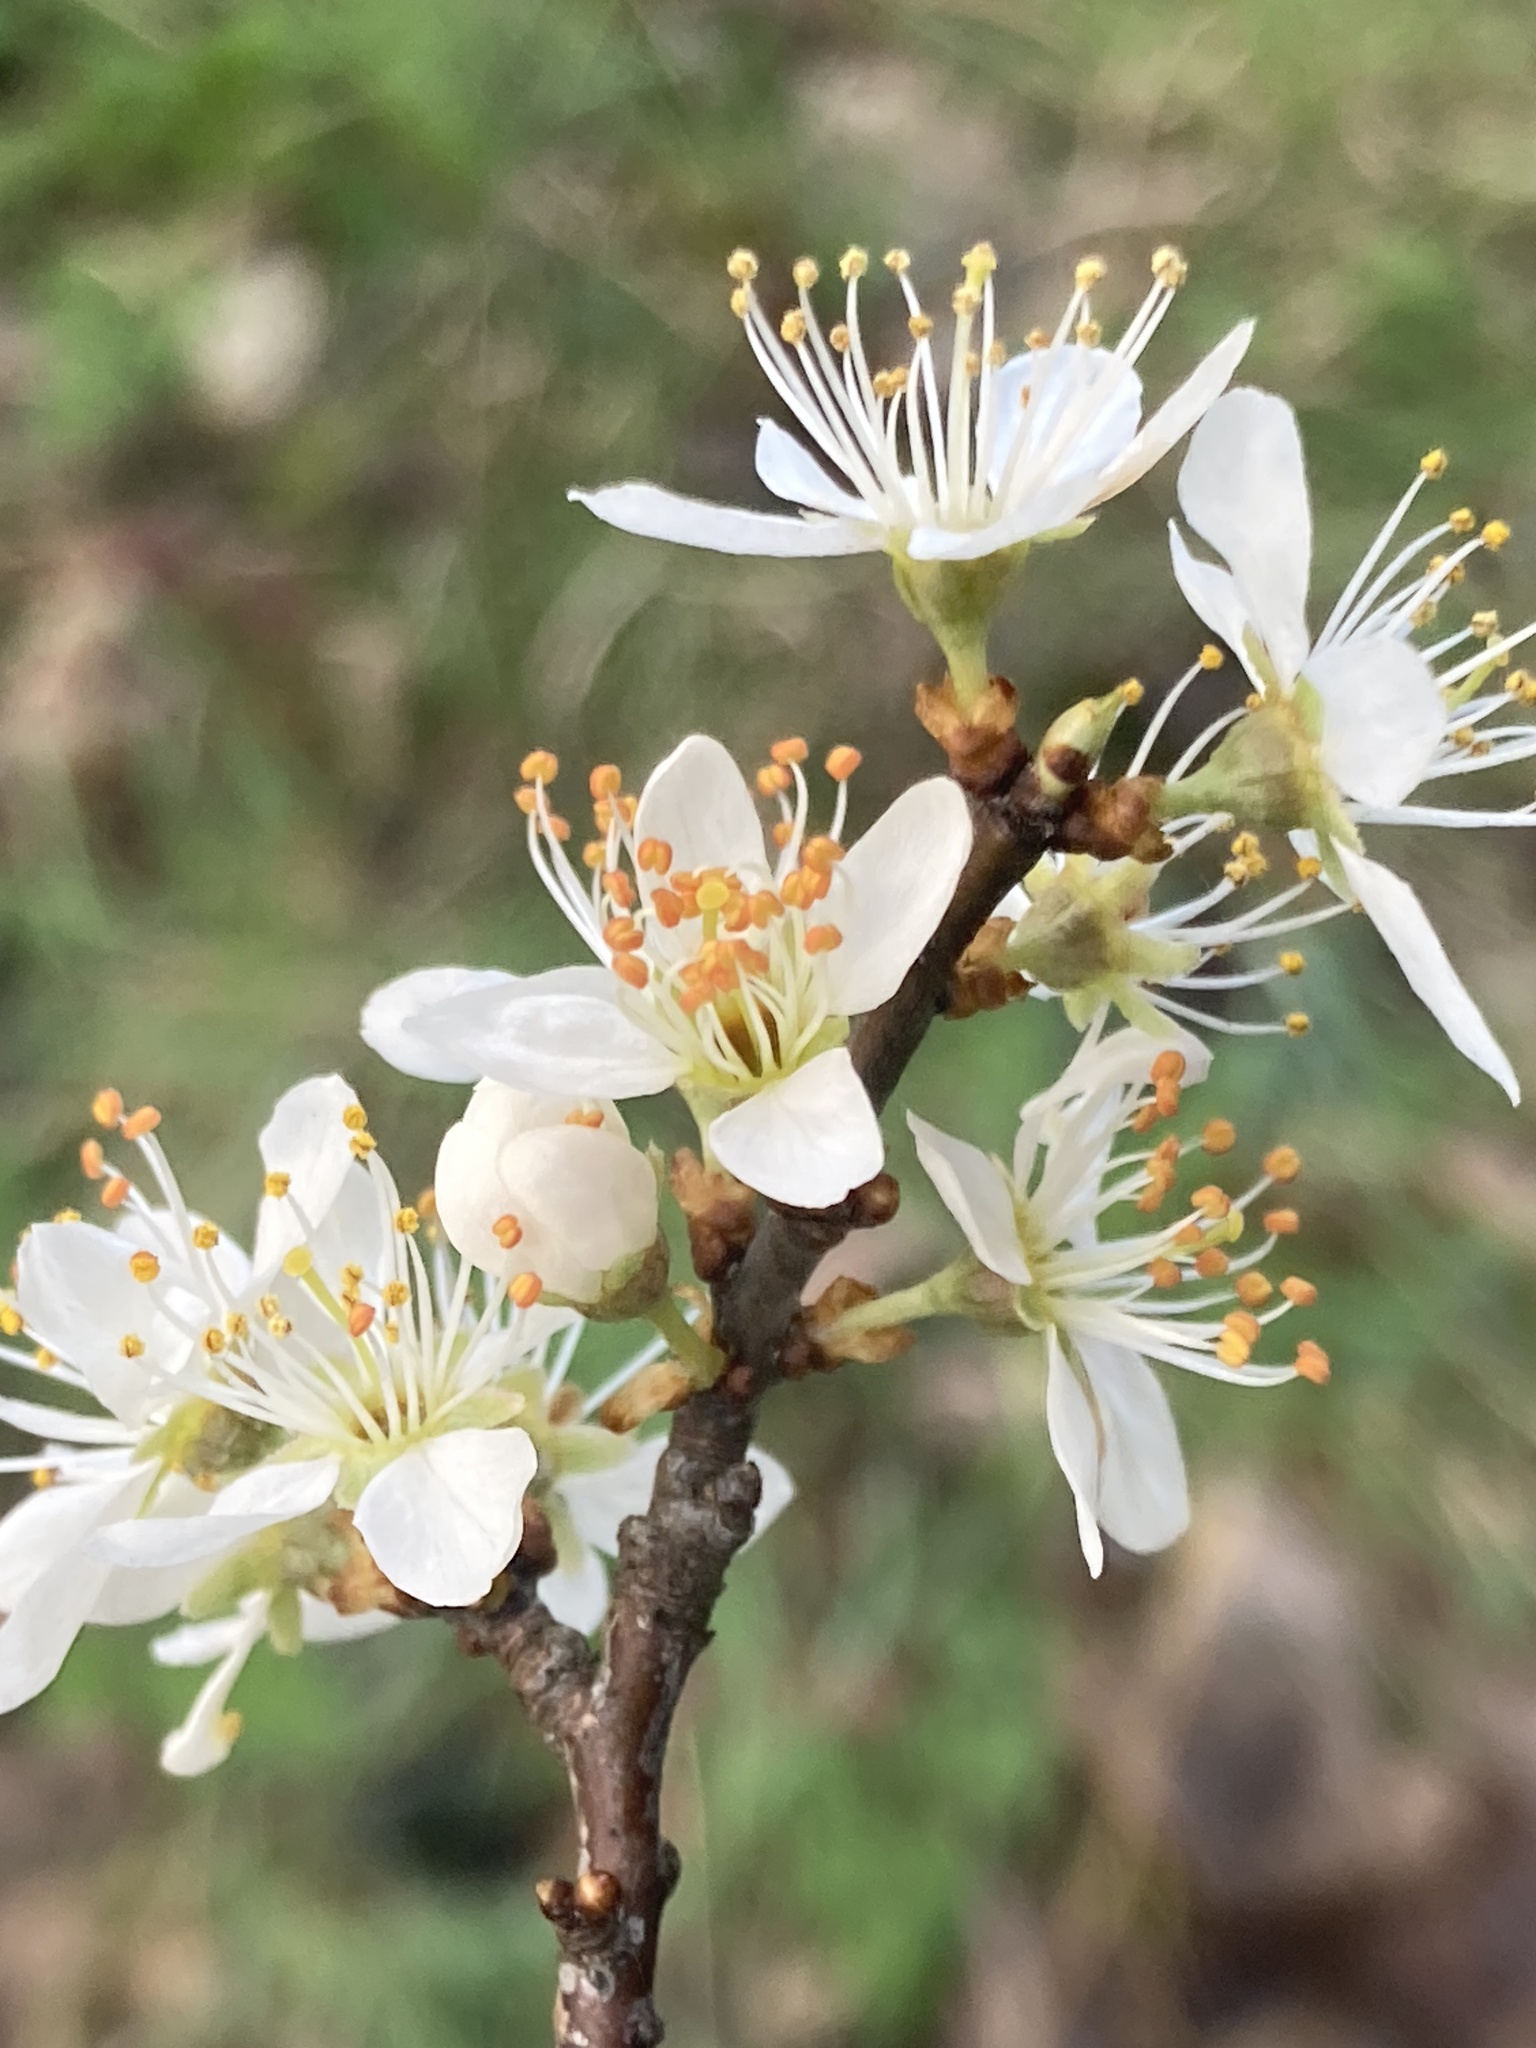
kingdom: Plantae
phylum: Tracheophyta
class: Magnoliopsida
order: Rosales
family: Rosaceae
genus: Prunus
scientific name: Prunus spinosa
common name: Blackthorn
